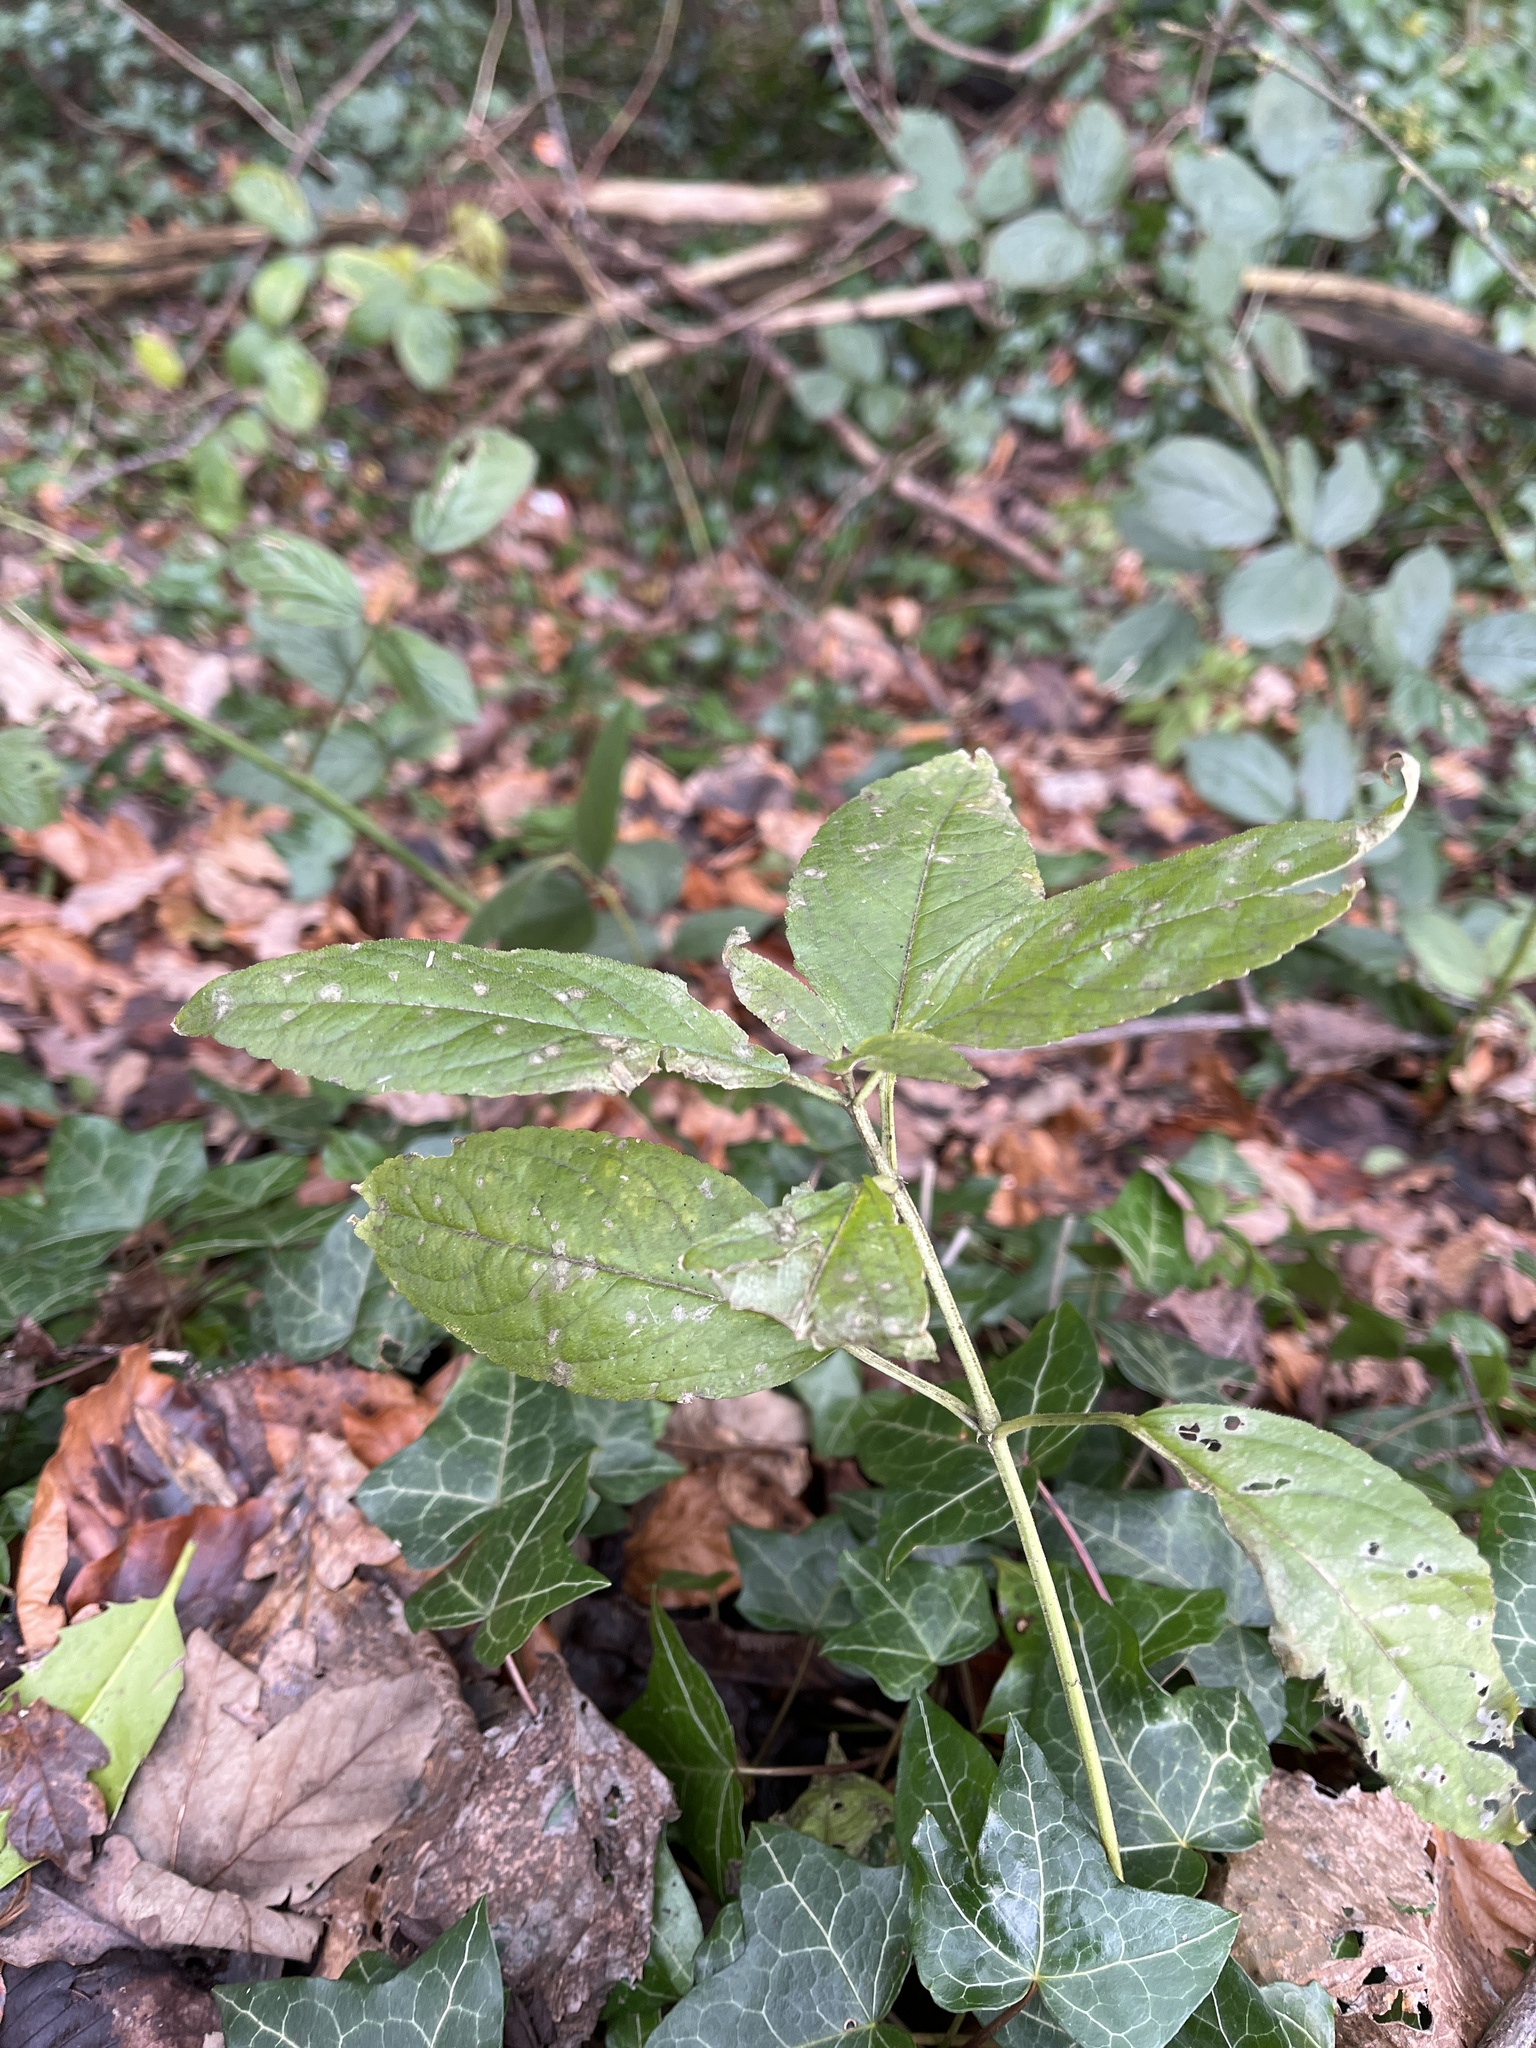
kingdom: Plantae
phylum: Tracheophyta
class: Magnoliopsida
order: Malpighiales
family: Euphorbiaceae
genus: Mercurialis
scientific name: Mercurialis perennis
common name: Dog mercury
